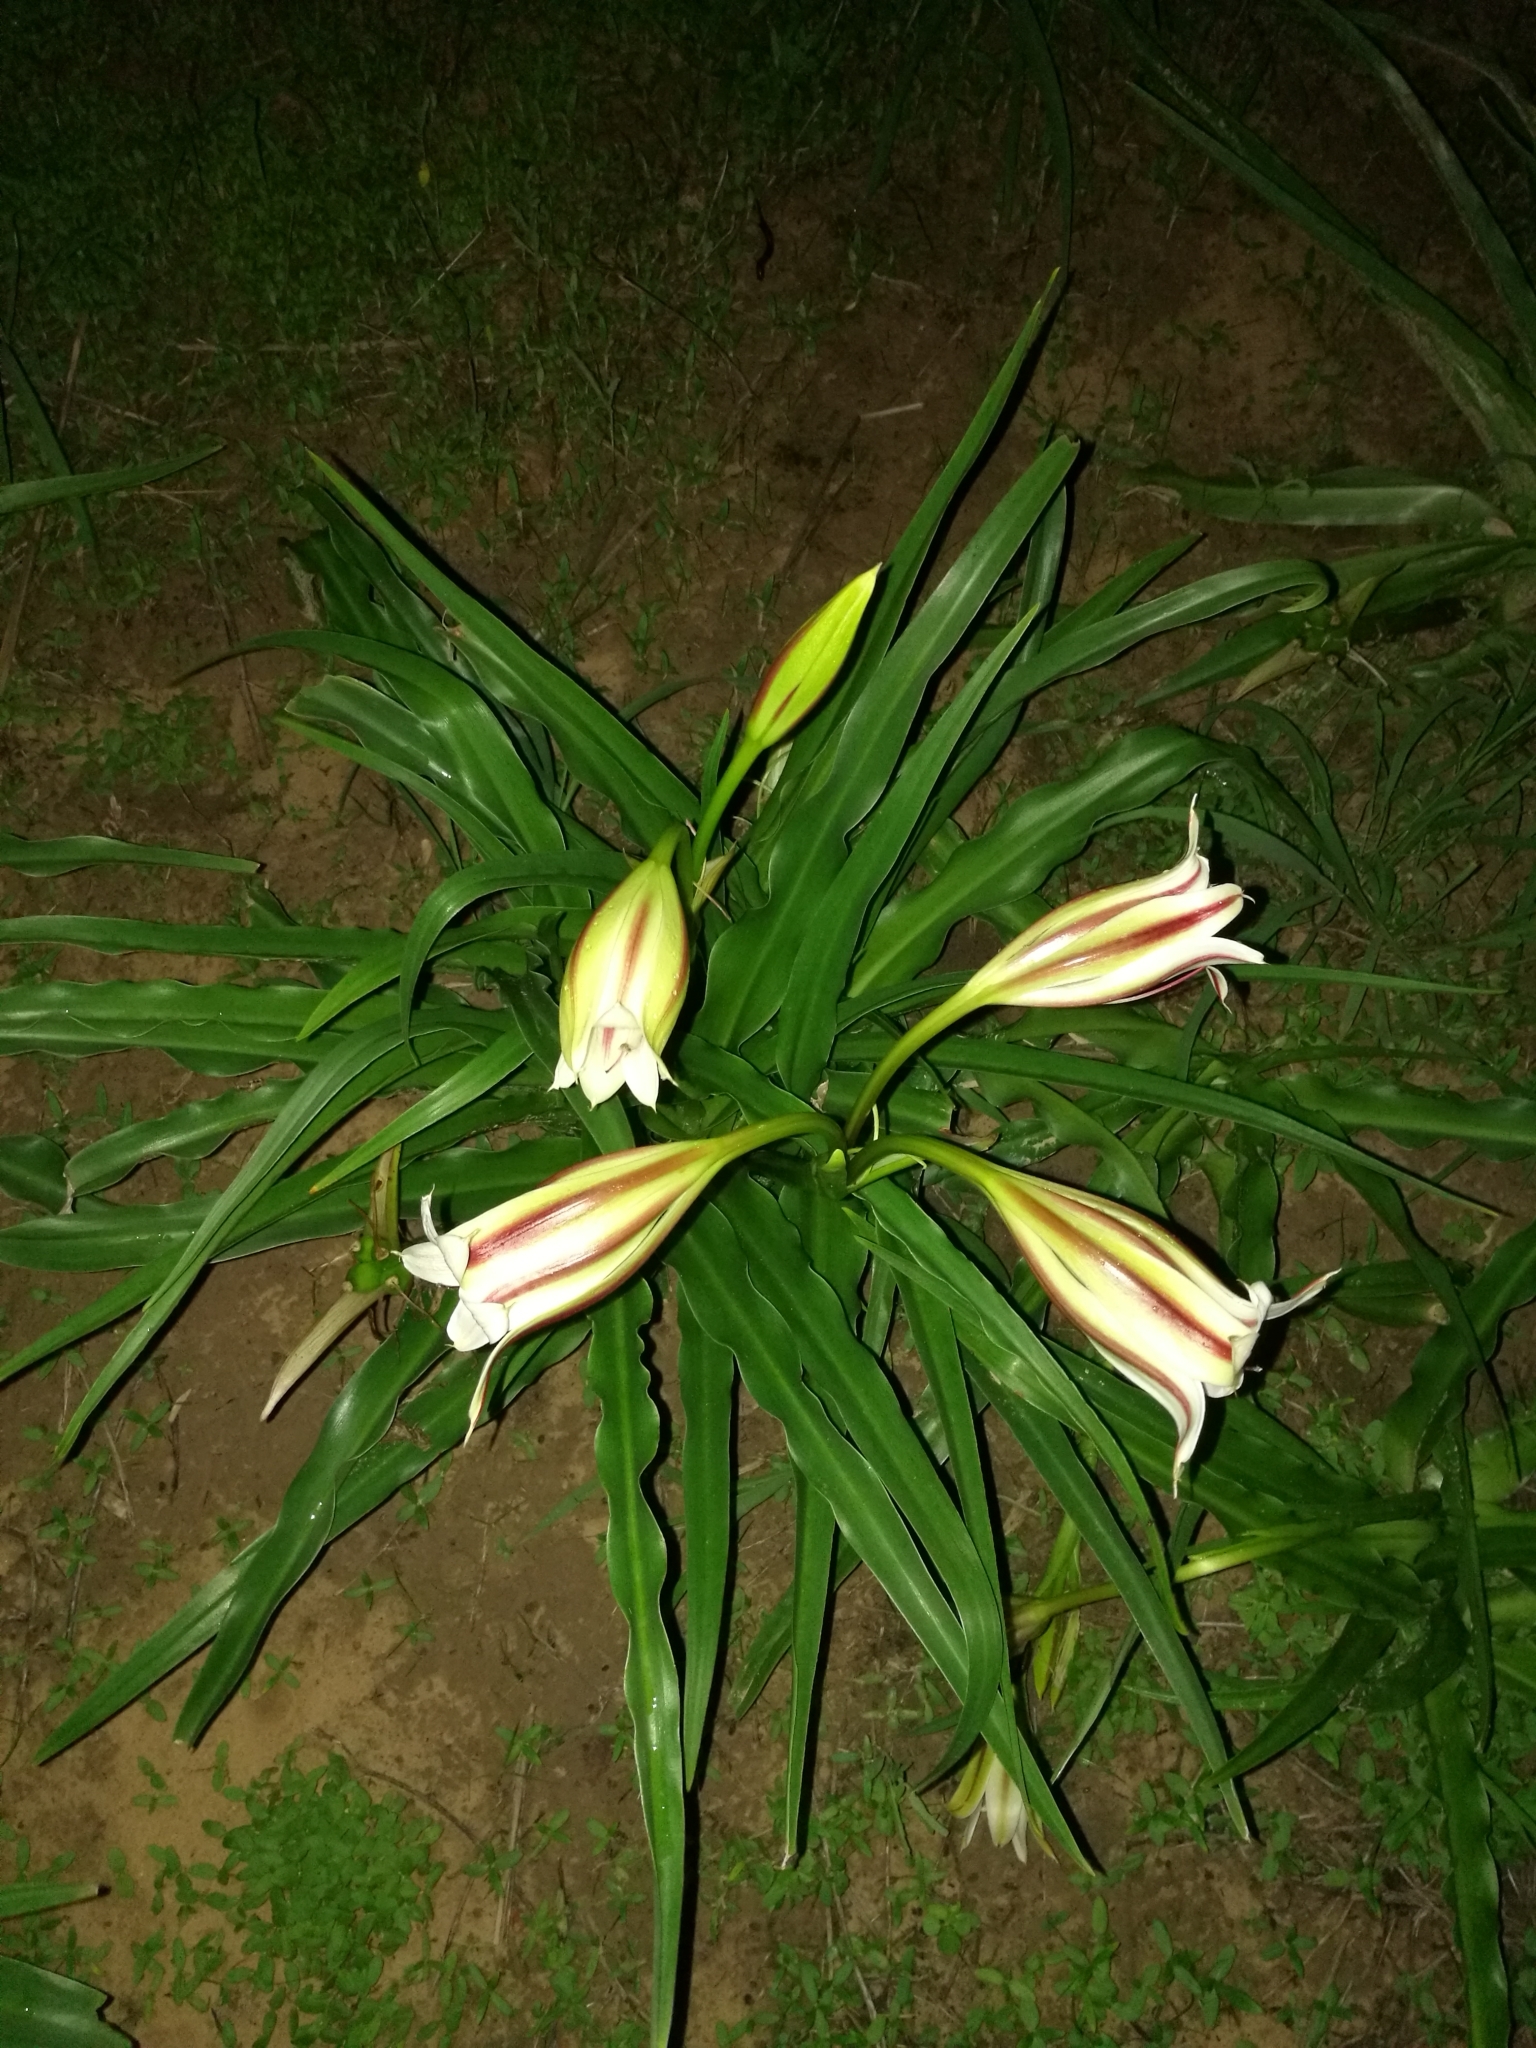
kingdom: Plantae
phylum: Tracheophyta
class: Liliopsida
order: Asparagales
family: Amaryllidaceae
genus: Crinum
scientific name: Crinum ornatum
